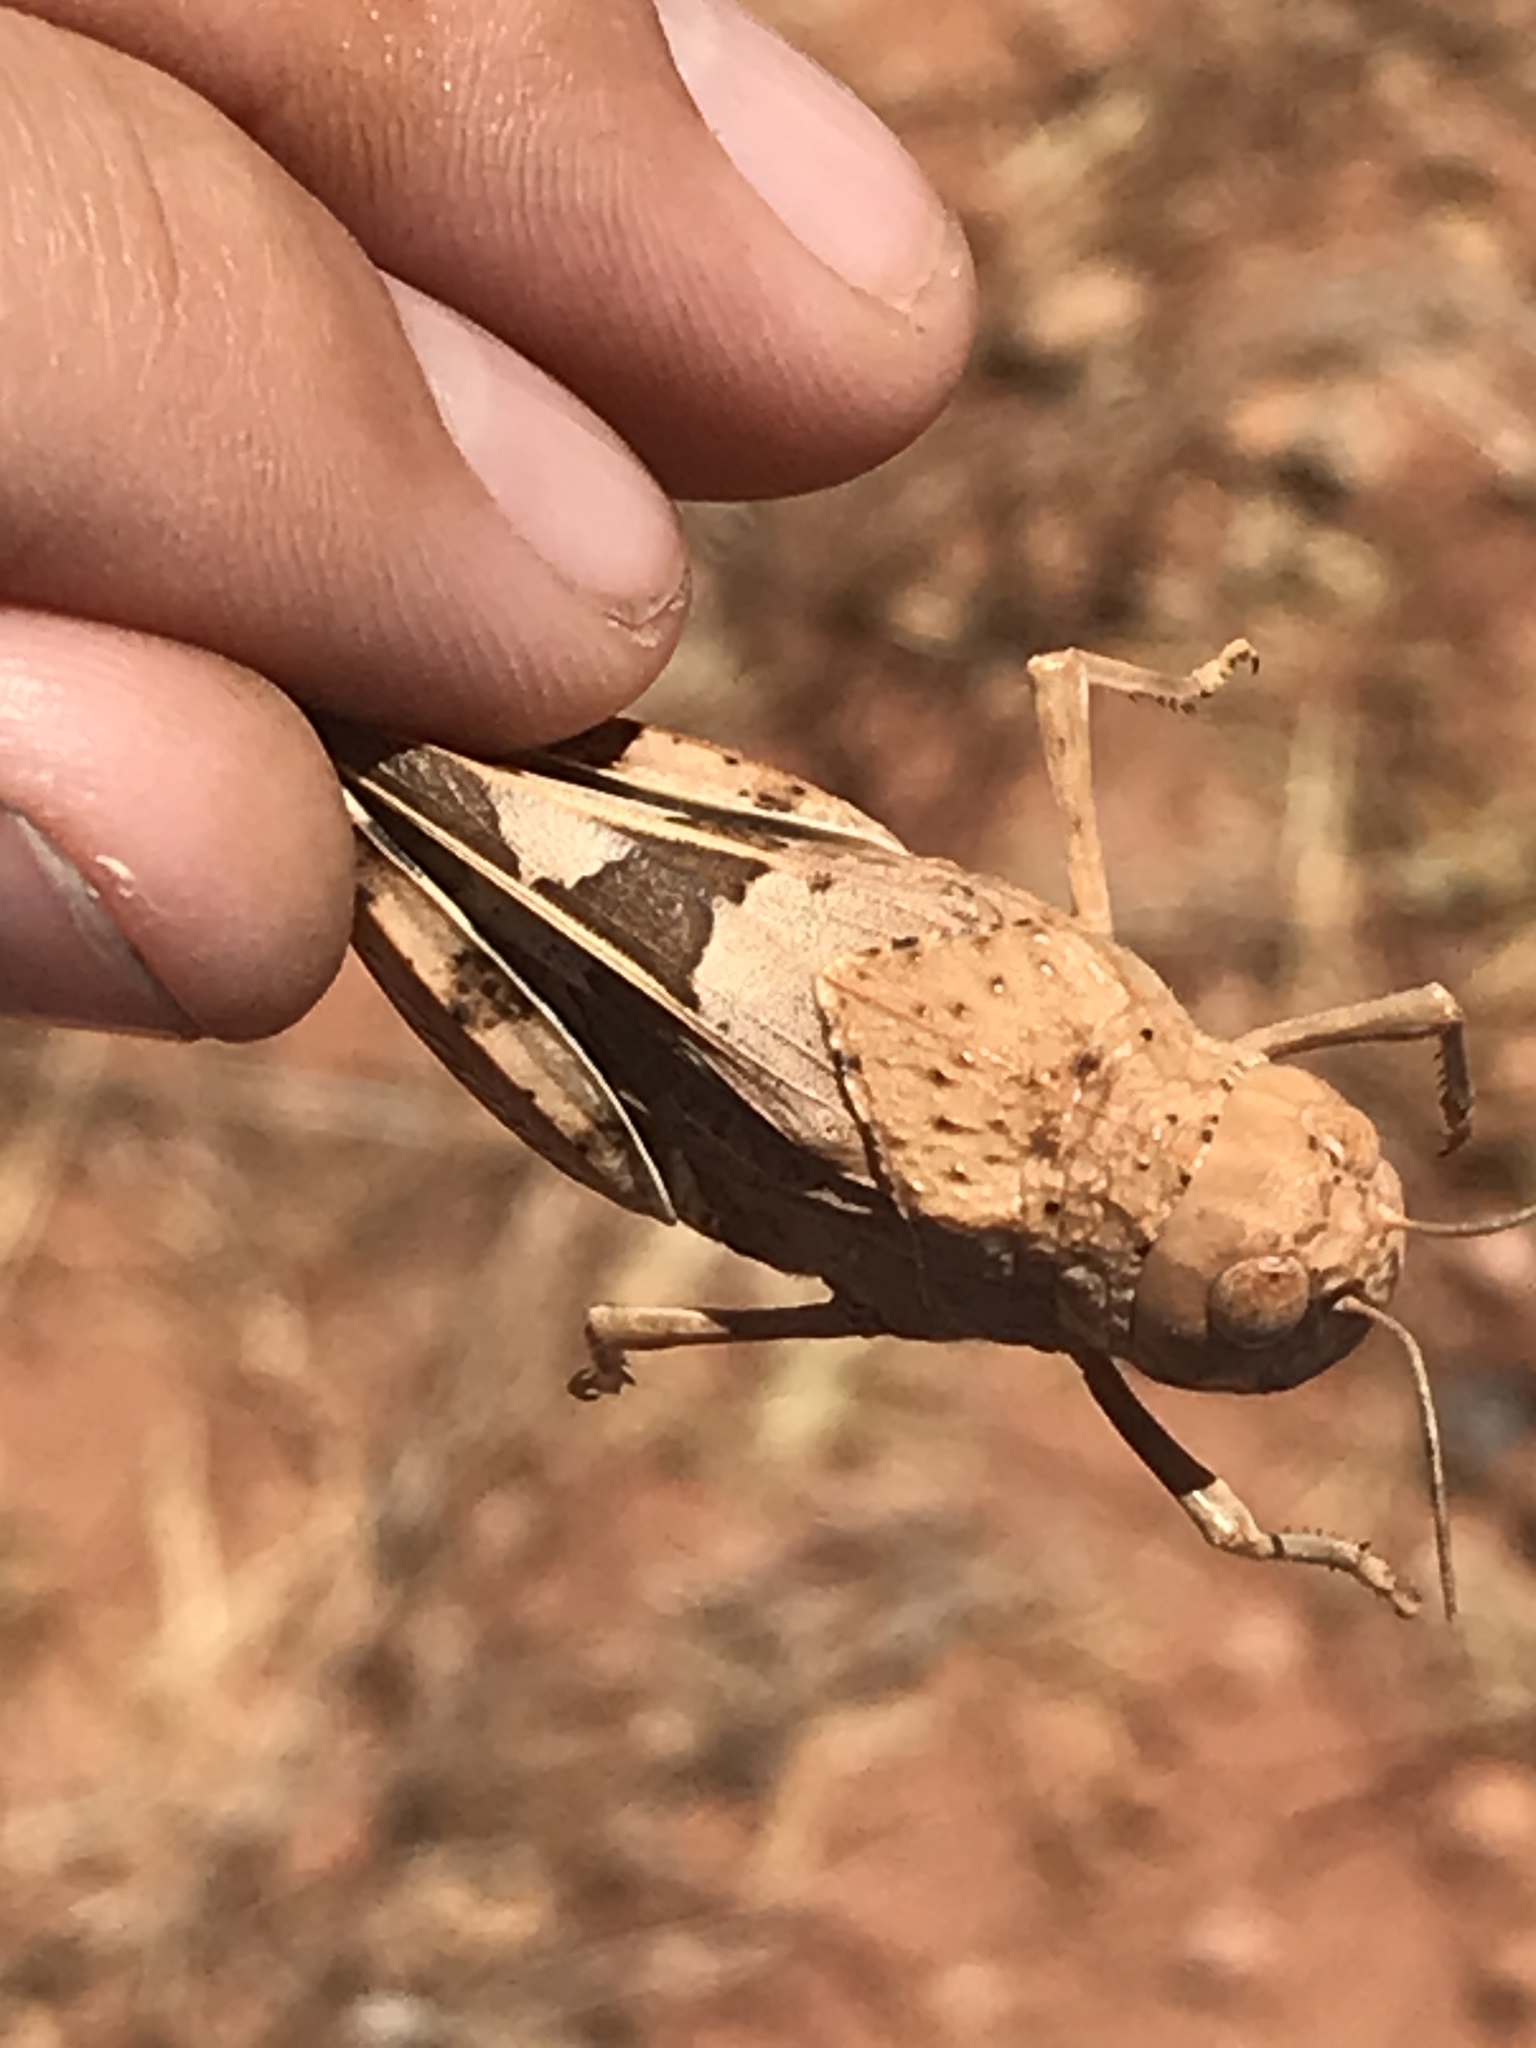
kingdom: Animalia
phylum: Arthropoda
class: Insecta
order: Orthoptera
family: Acrididae
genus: Leprus
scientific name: Leprus wheelerii
